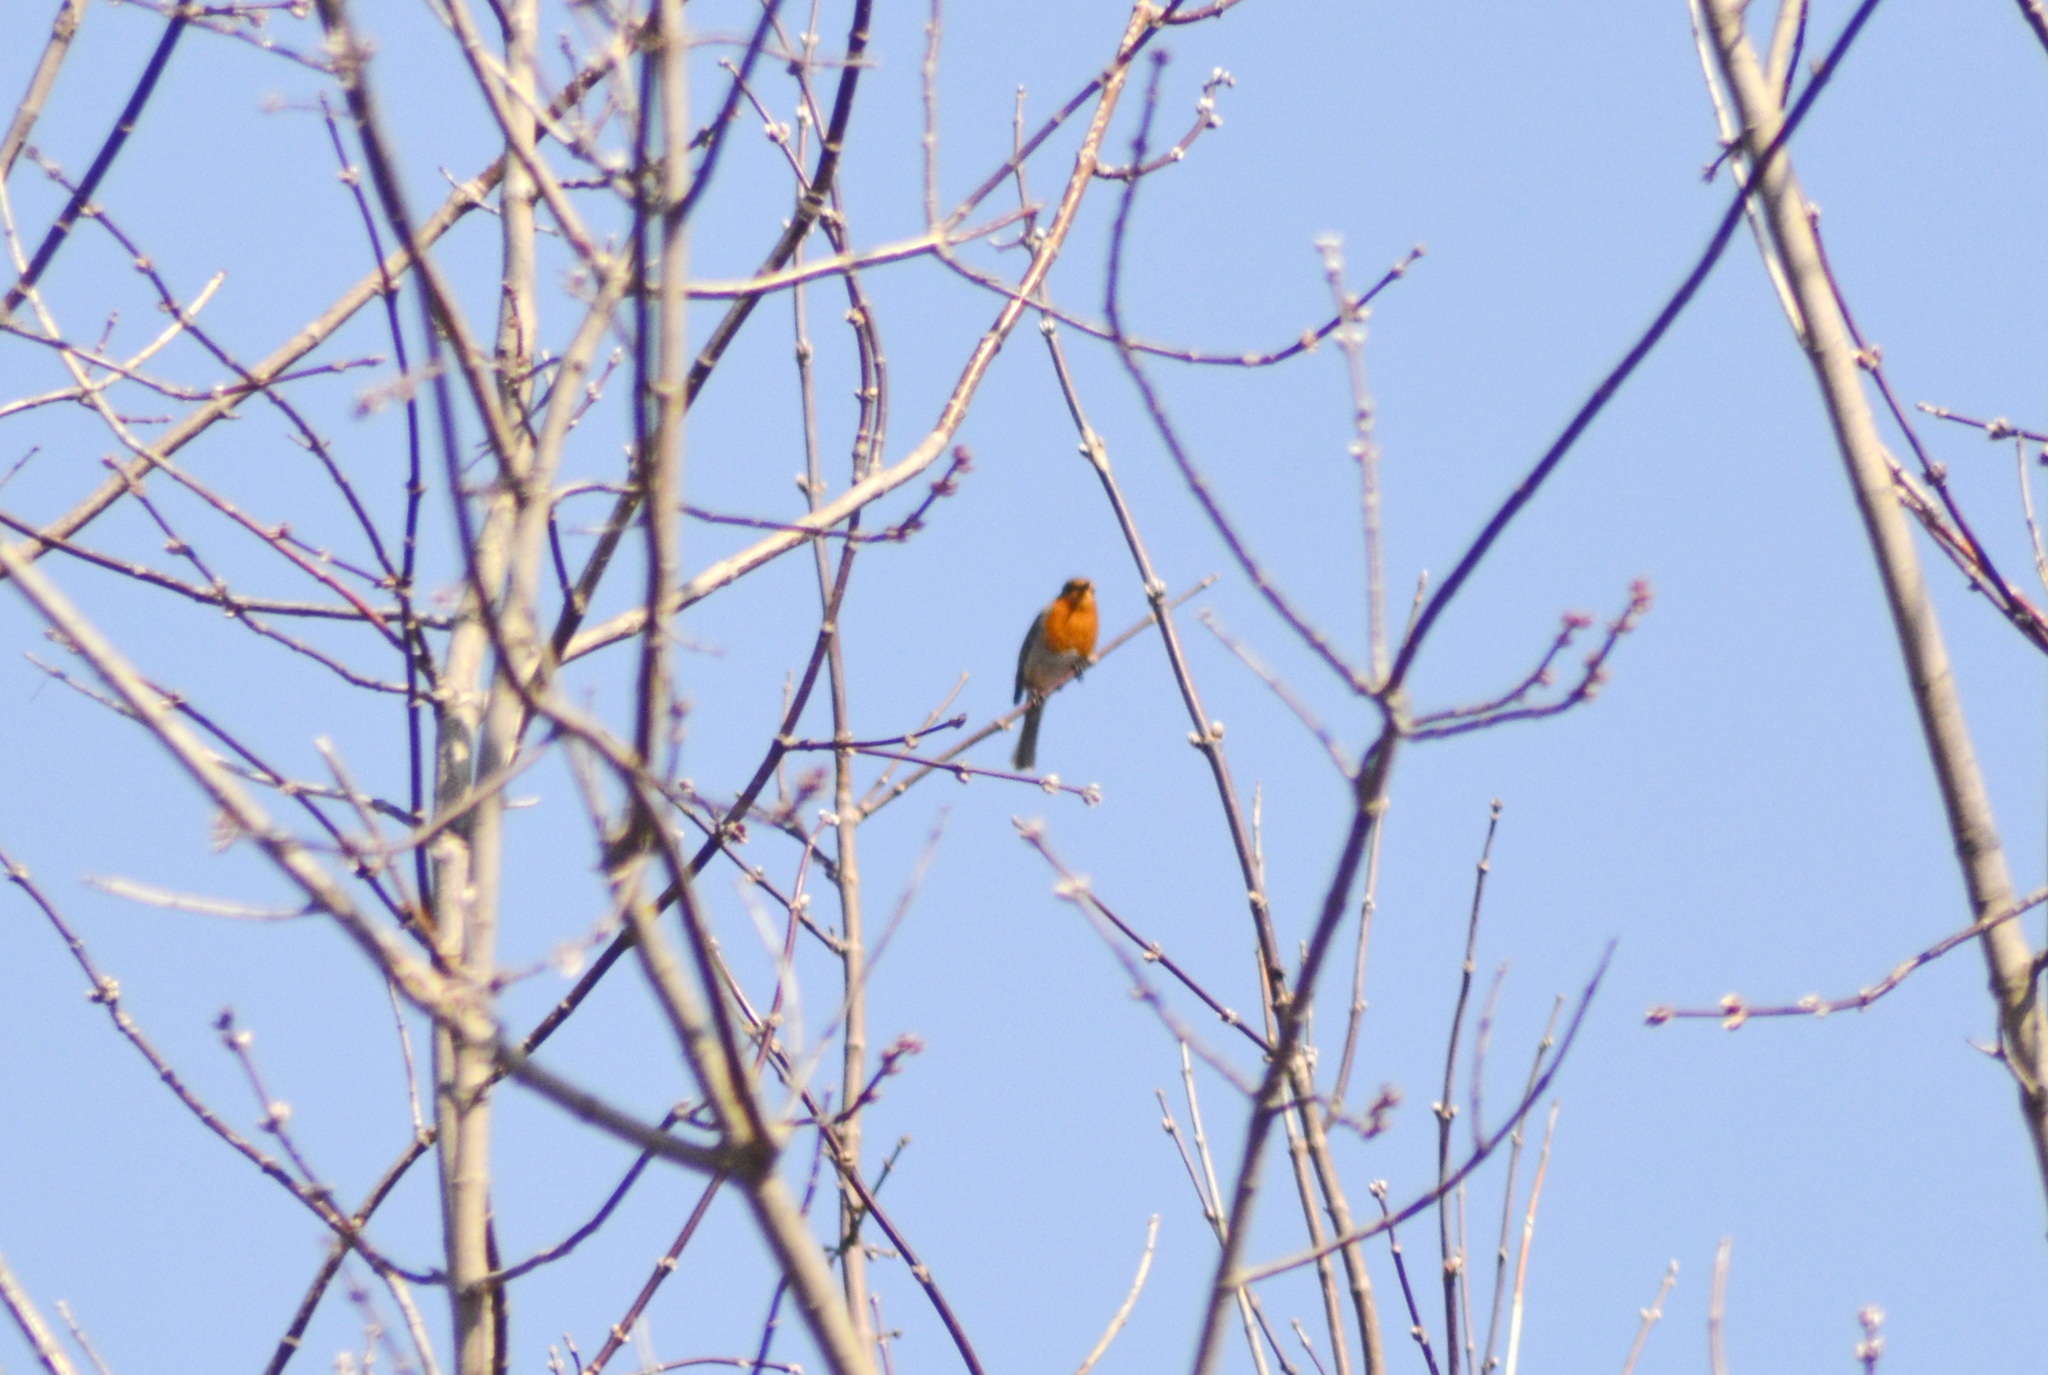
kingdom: Animalia
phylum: Chordata
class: Aves
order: Passeriformes
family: Muscicapidae
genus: Erithacus
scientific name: Erithacus rubecula
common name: European robin
